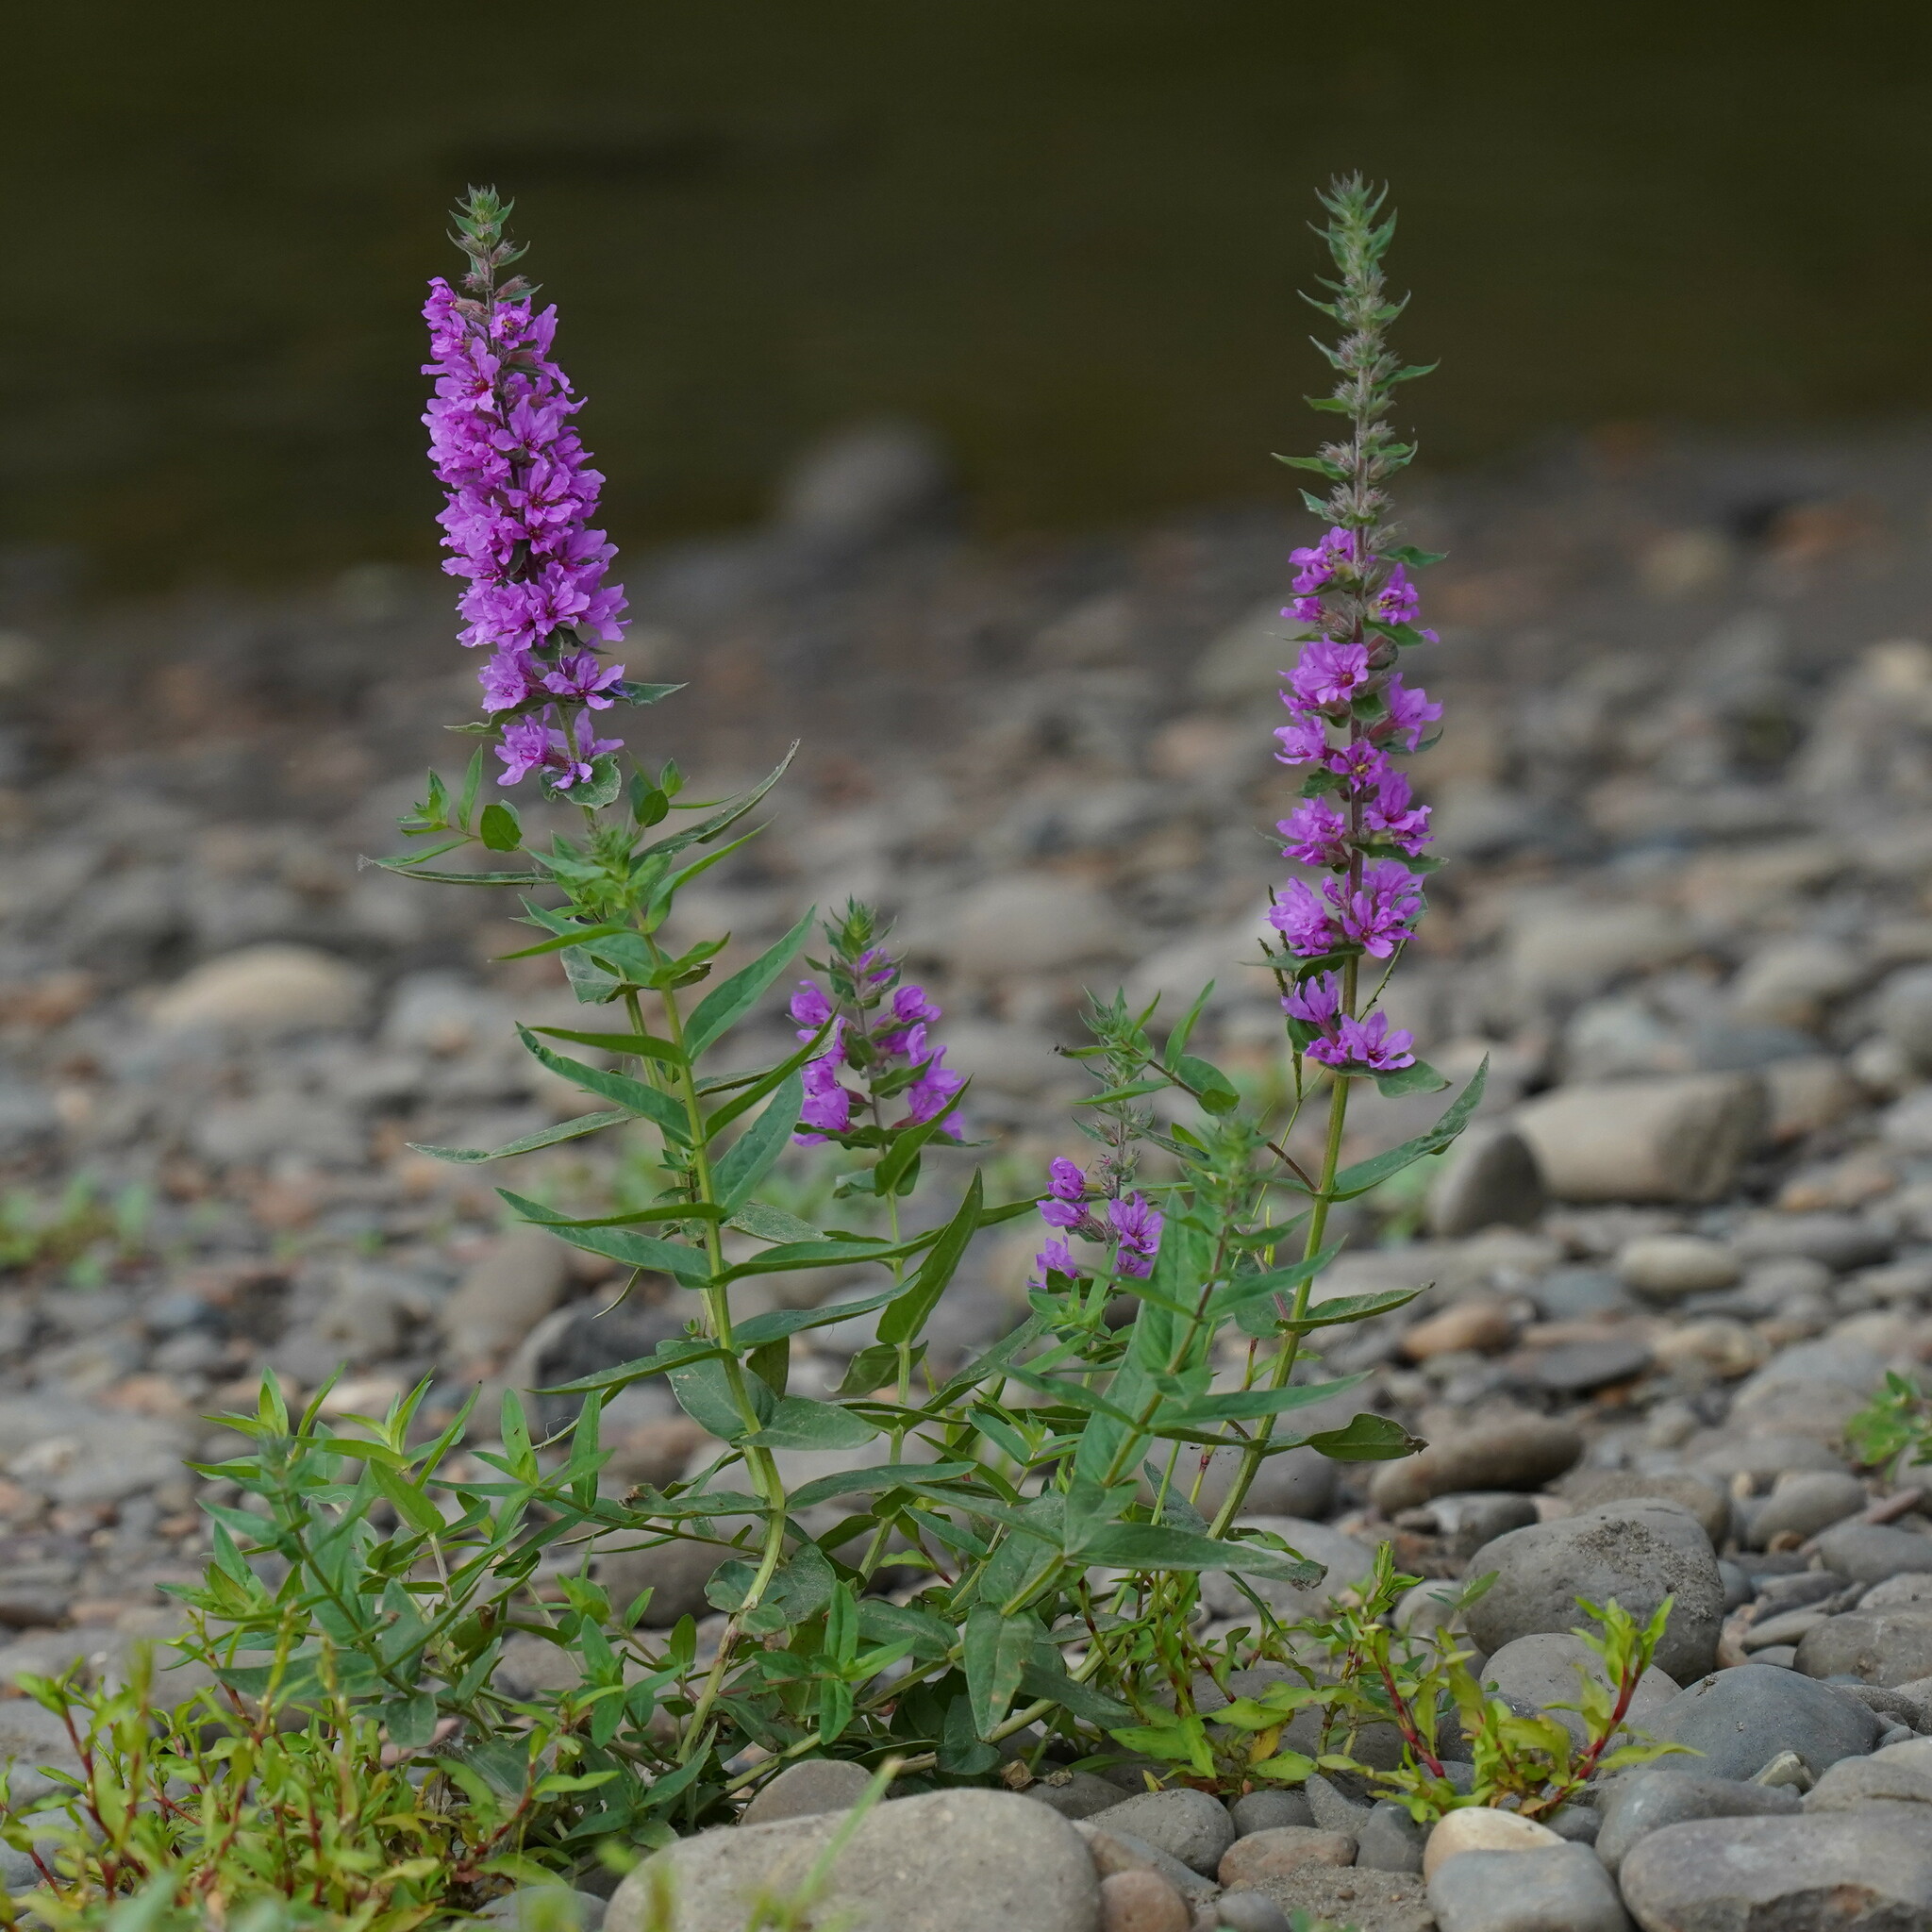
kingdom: Plantae
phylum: Tracheophyta
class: Magnoliopsida
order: Myrtales
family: Lythraceae
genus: Lythrum
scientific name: Lythrum salicaria
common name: Purple loosestrife
